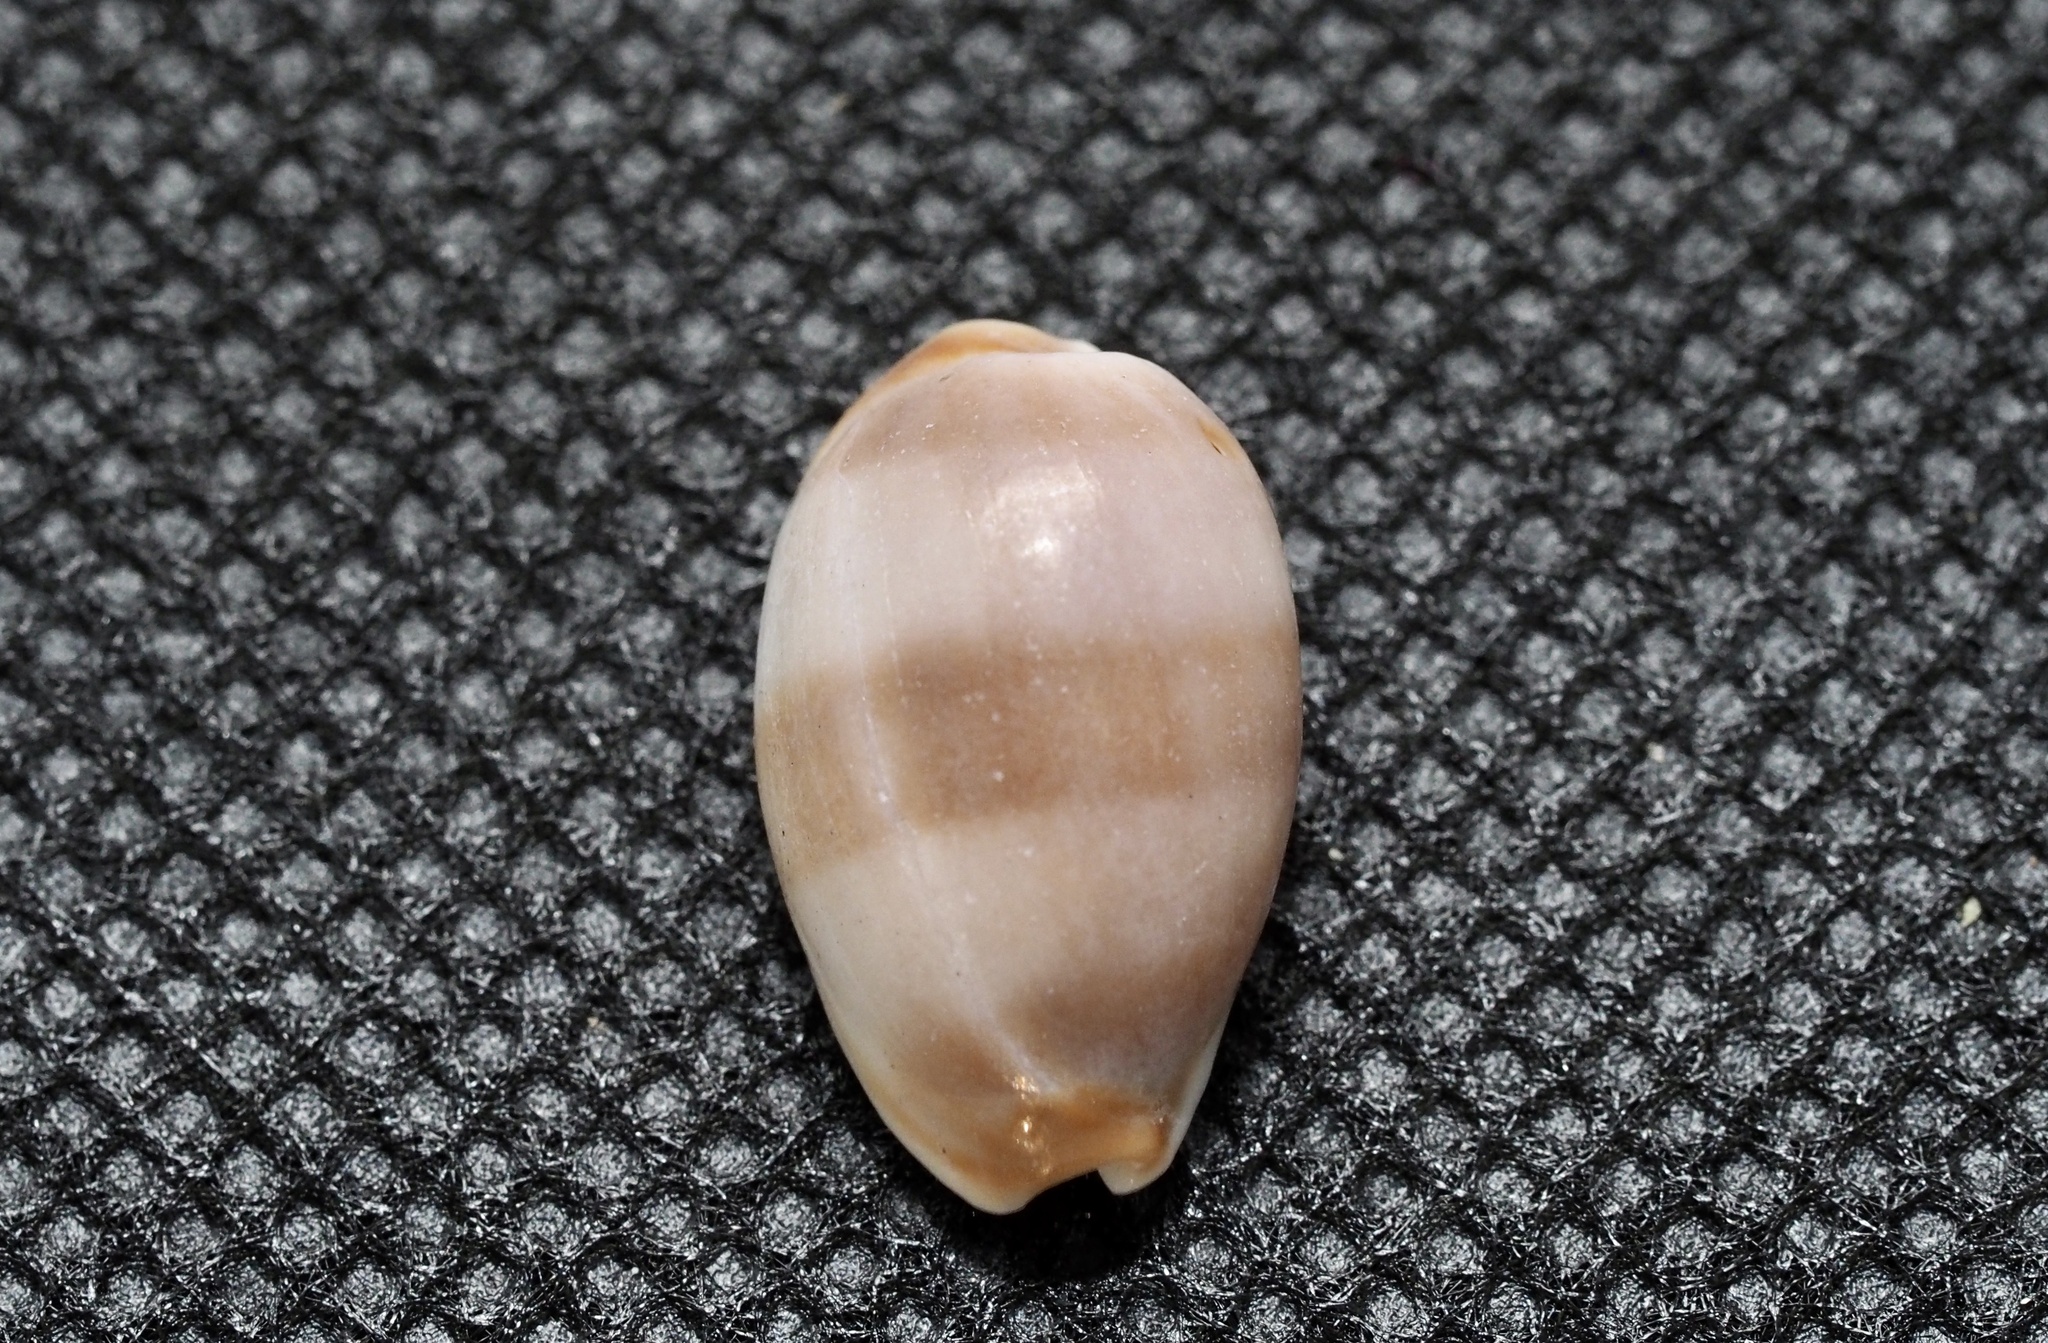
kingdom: Animalia
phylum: Mollusca
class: Gastropoda
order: Littorinimorpha
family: Cypraeidae
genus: Palmadusta
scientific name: Palmadusta artuffeli
